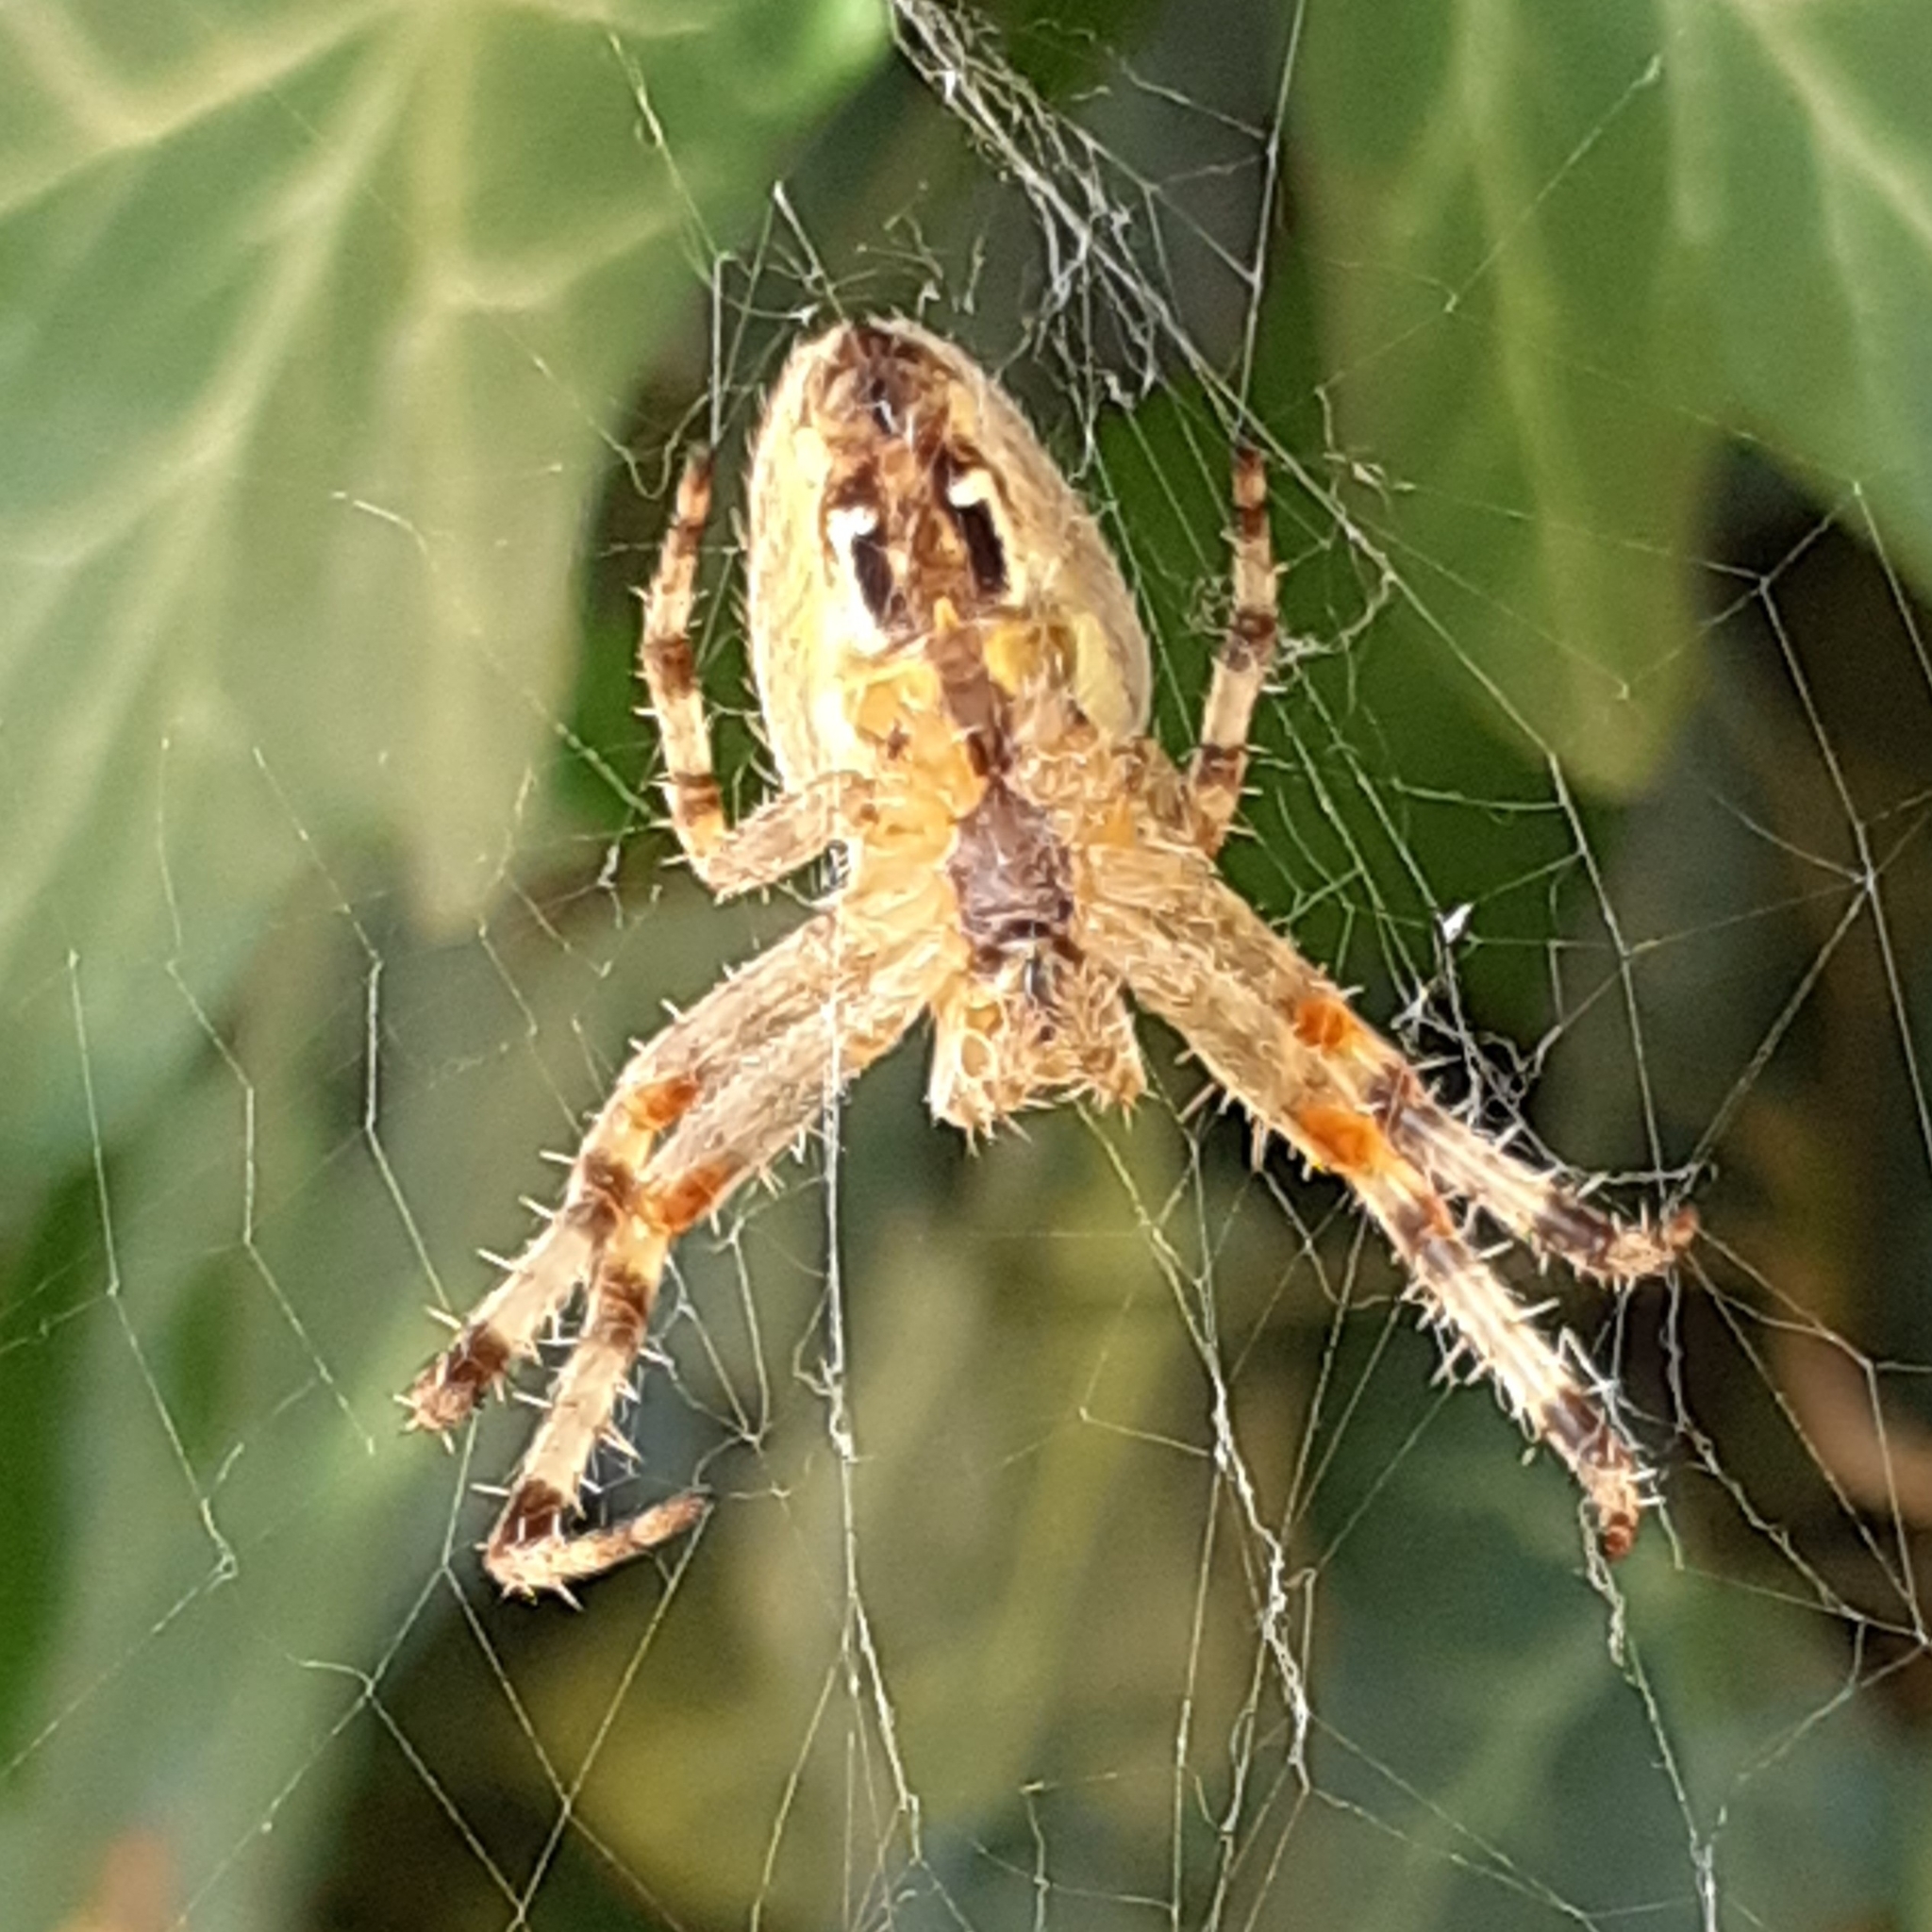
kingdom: Animalia
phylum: Arthropoda
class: Arachnida
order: Araneae
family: Araneidae
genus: Araneus
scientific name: Araneus diadematus
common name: Cross orbweaver
